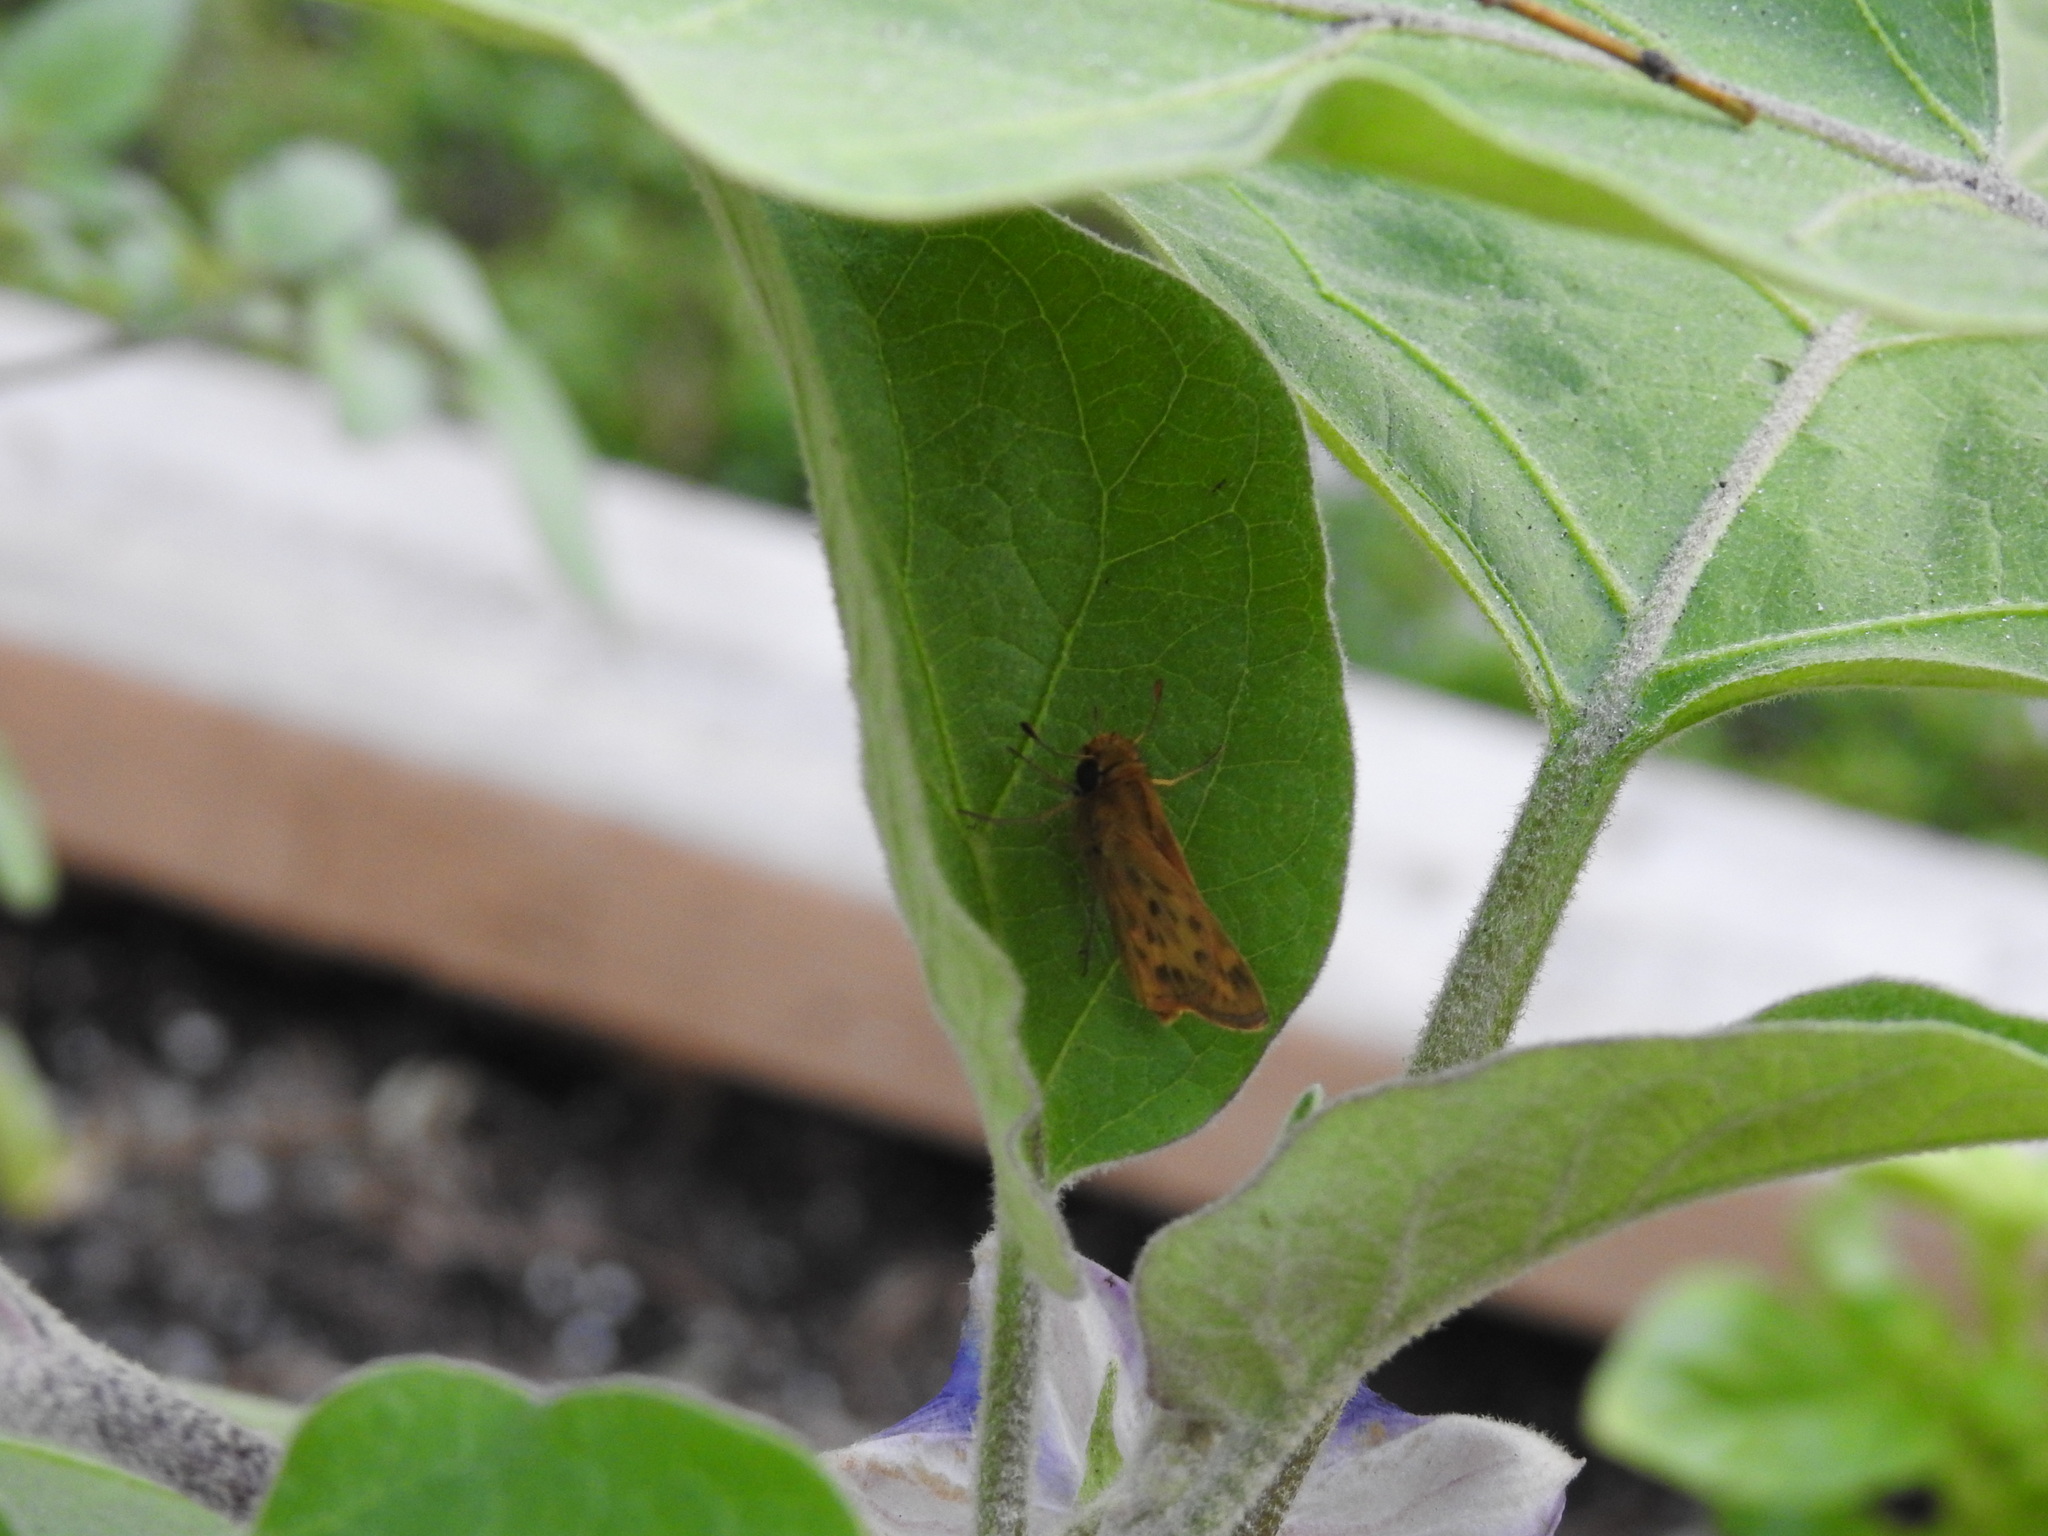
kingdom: Animalia
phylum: Arthropoda
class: Insecta
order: Lepidoptera
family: Hesperiidae
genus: Hylephila
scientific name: Hylephila phyleus
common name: Fiery skipper
